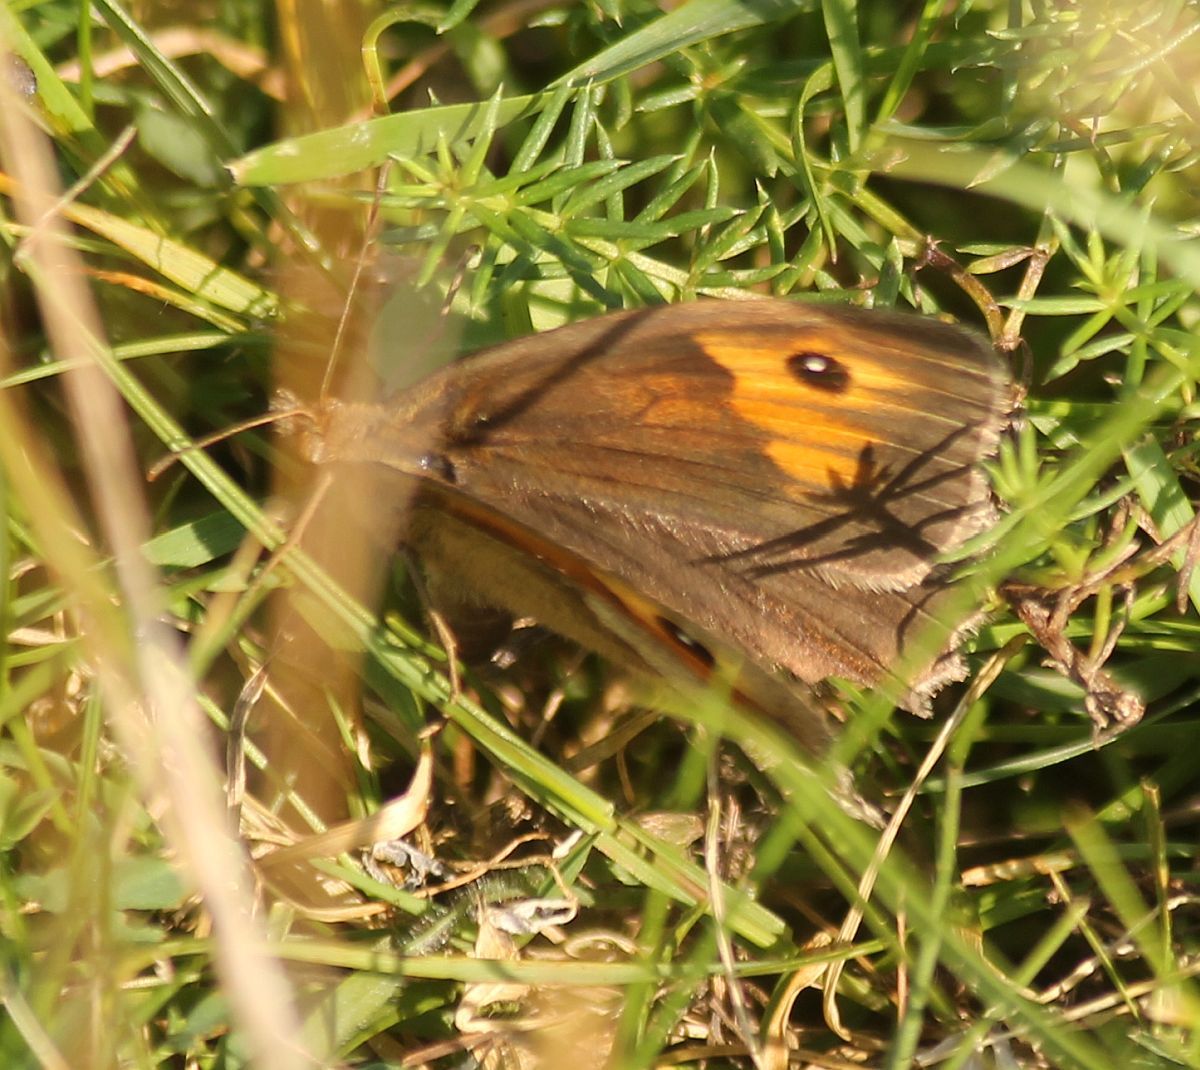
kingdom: Animalia
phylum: Arthropoda
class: Insecta
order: Lepidoptera
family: Nymphalidae
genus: Maniola
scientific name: Maniola jurtina
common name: Meadow brown
